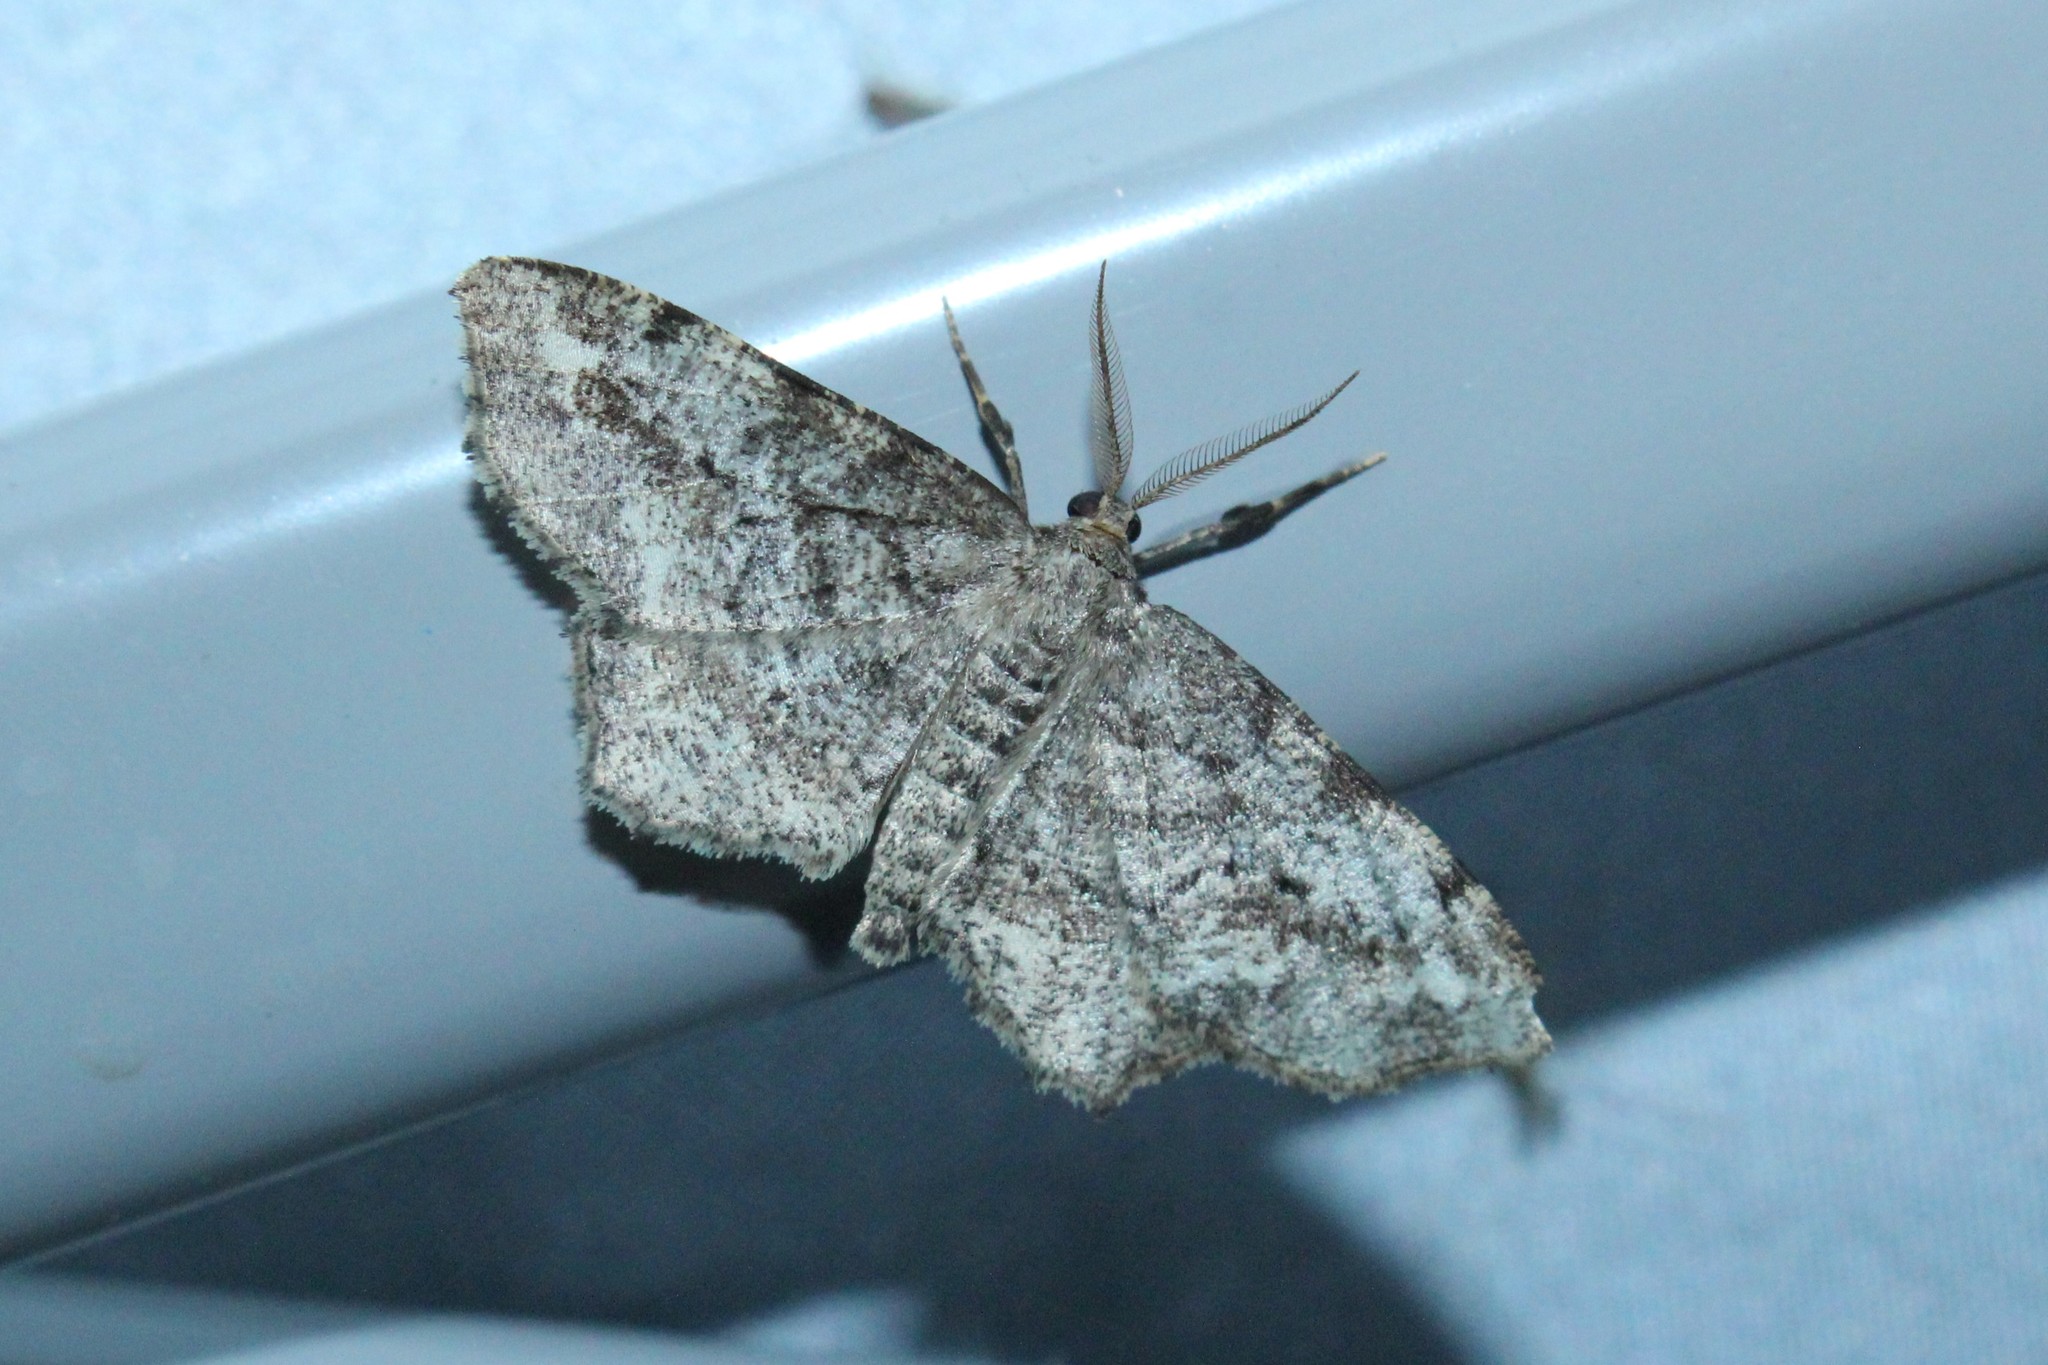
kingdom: Animalia
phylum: Arthropoda
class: Insecta
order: Lepidoptera
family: Geometridae
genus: Hypagyrtis
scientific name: Hypagyrtis unipunctata
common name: One-spotted variant
